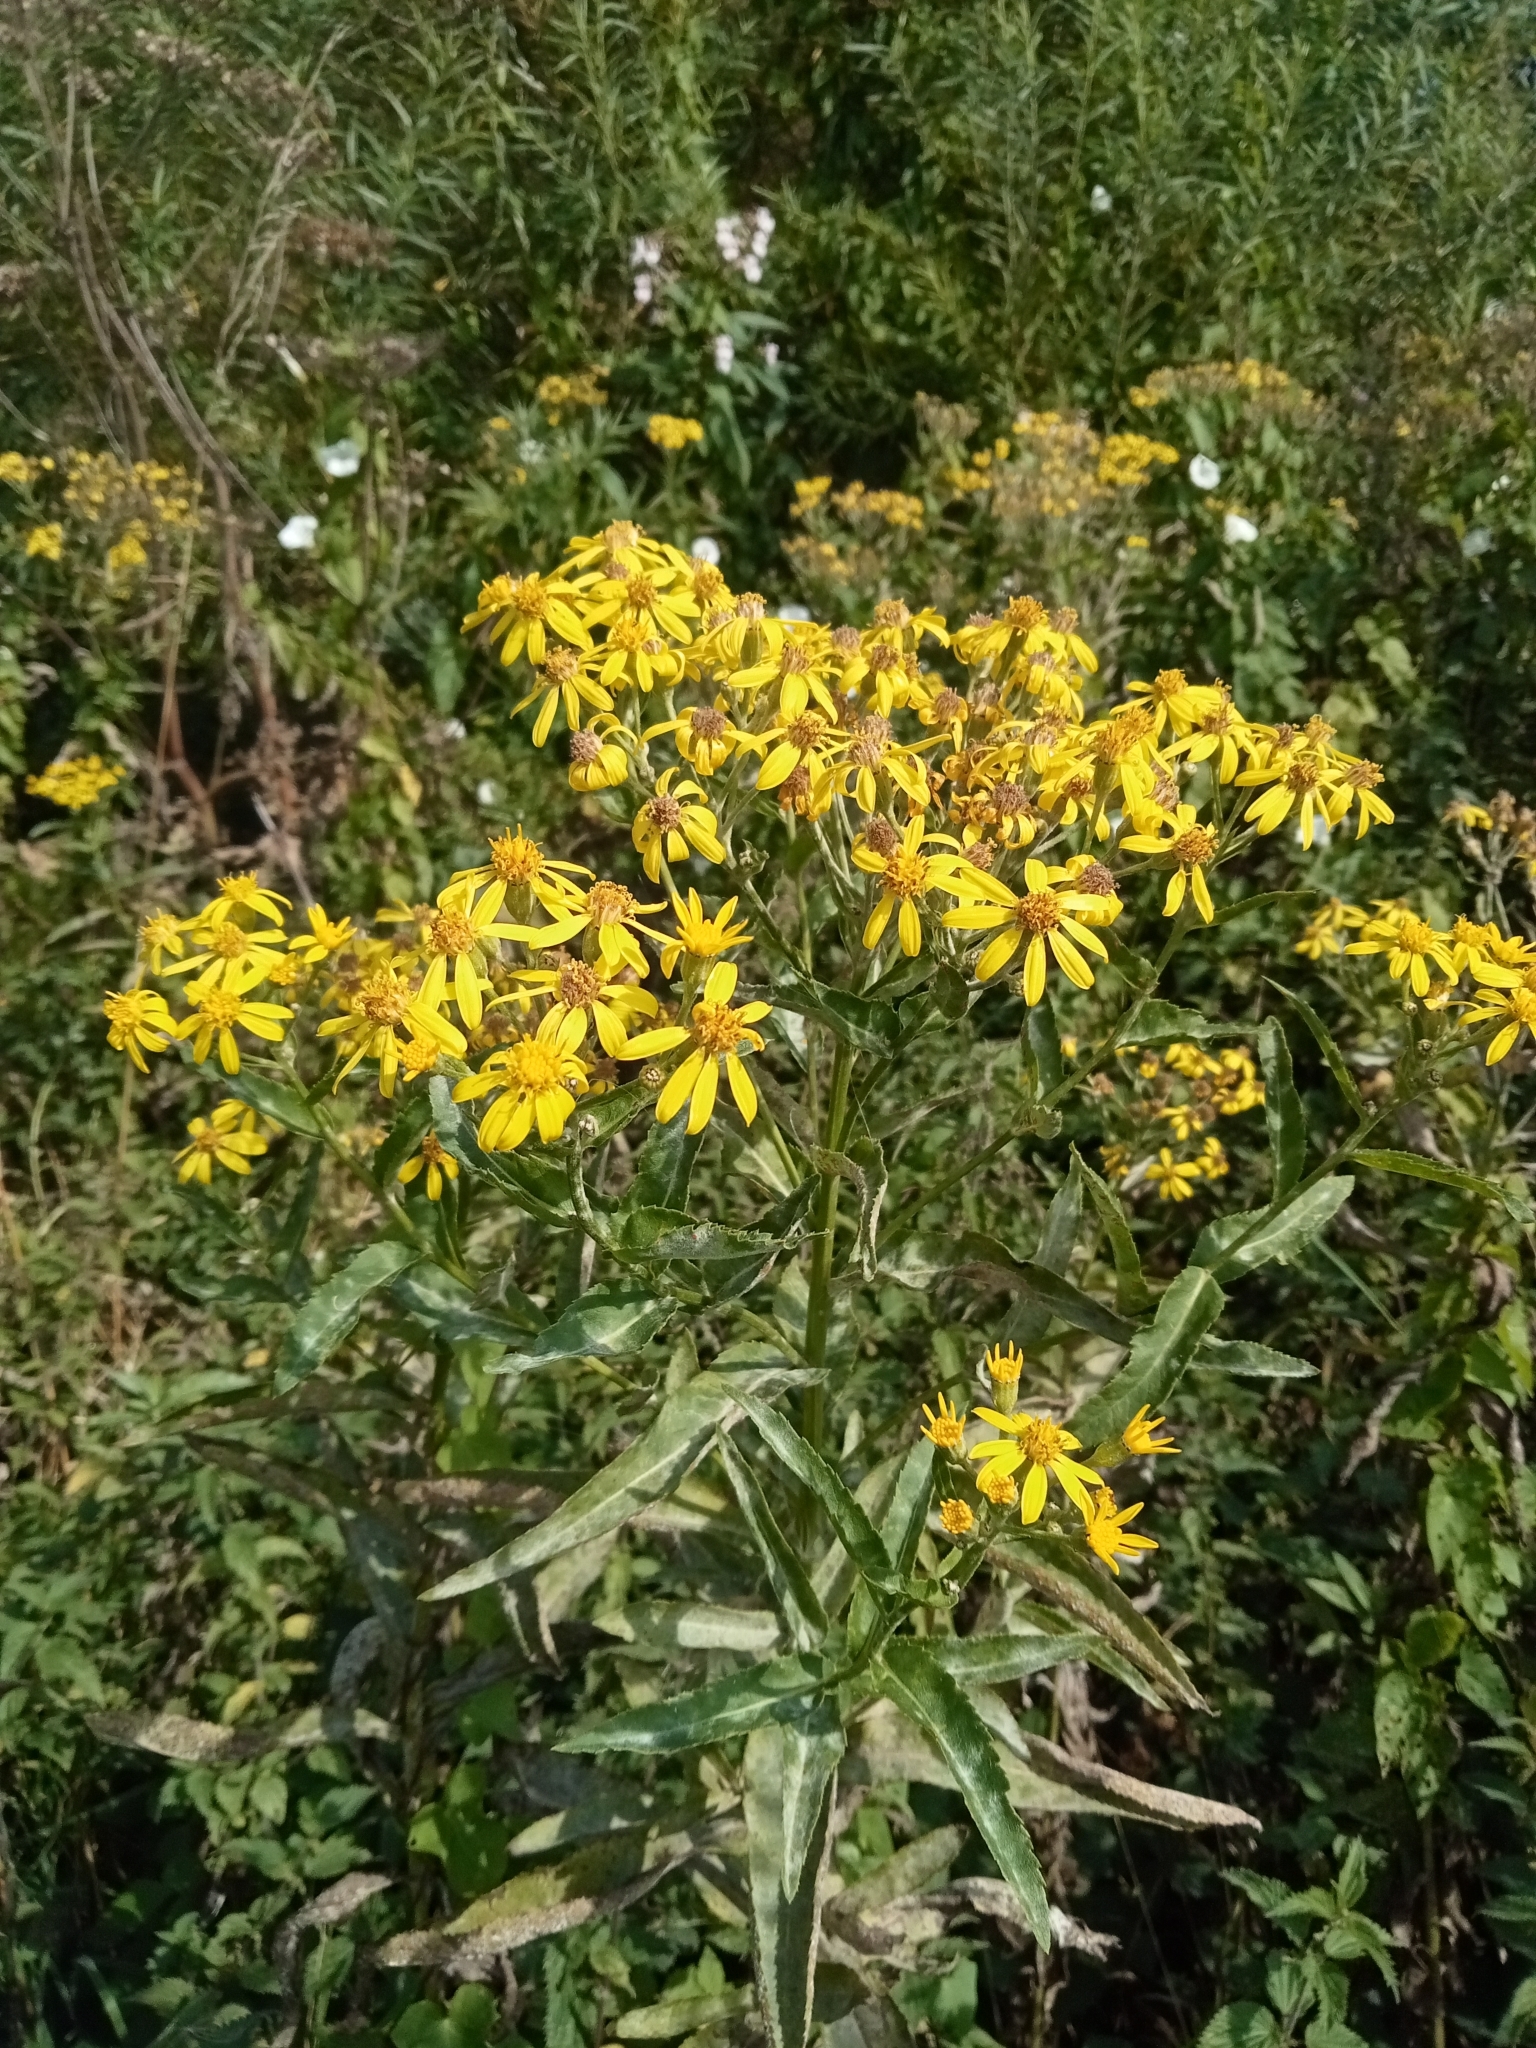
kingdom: Plantae
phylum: Tracheophyta
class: Magnoliopsida
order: Asterales
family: Asteraceae
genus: Senecio
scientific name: Senecio sarracenicus
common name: Broad-leaved ragwort
